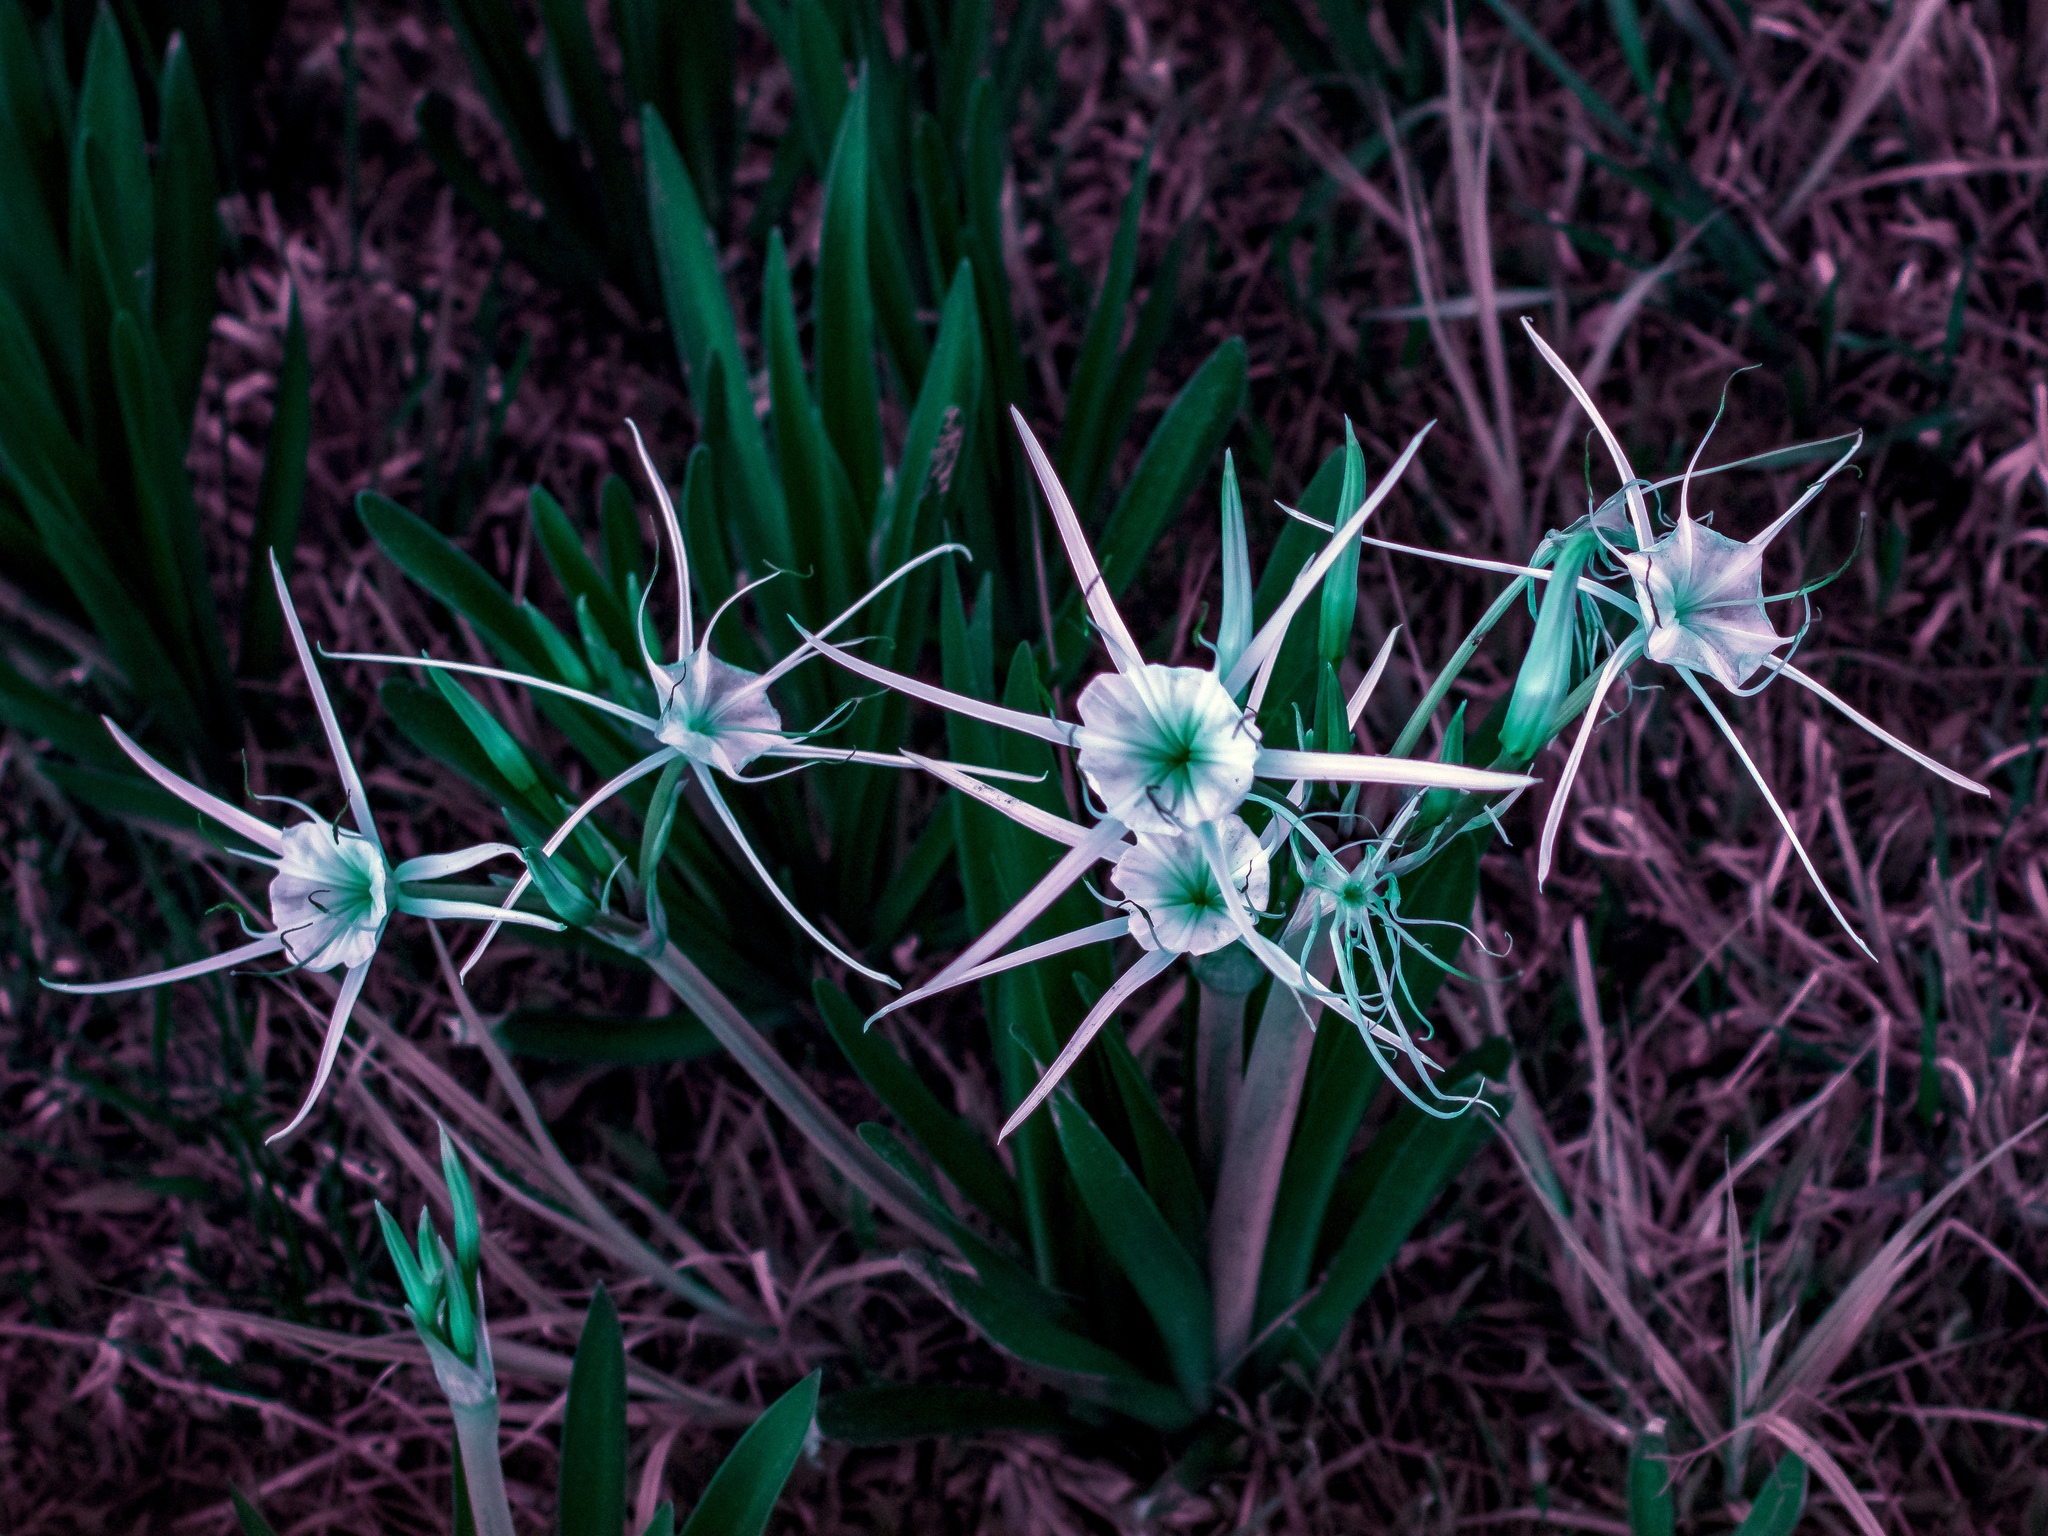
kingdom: Plantae
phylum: Tracheophyta
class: Liliopsida
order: Asparagales
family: Amaryllidaceae
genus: Hymenocallis
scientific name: Hymenocallis liriosme
